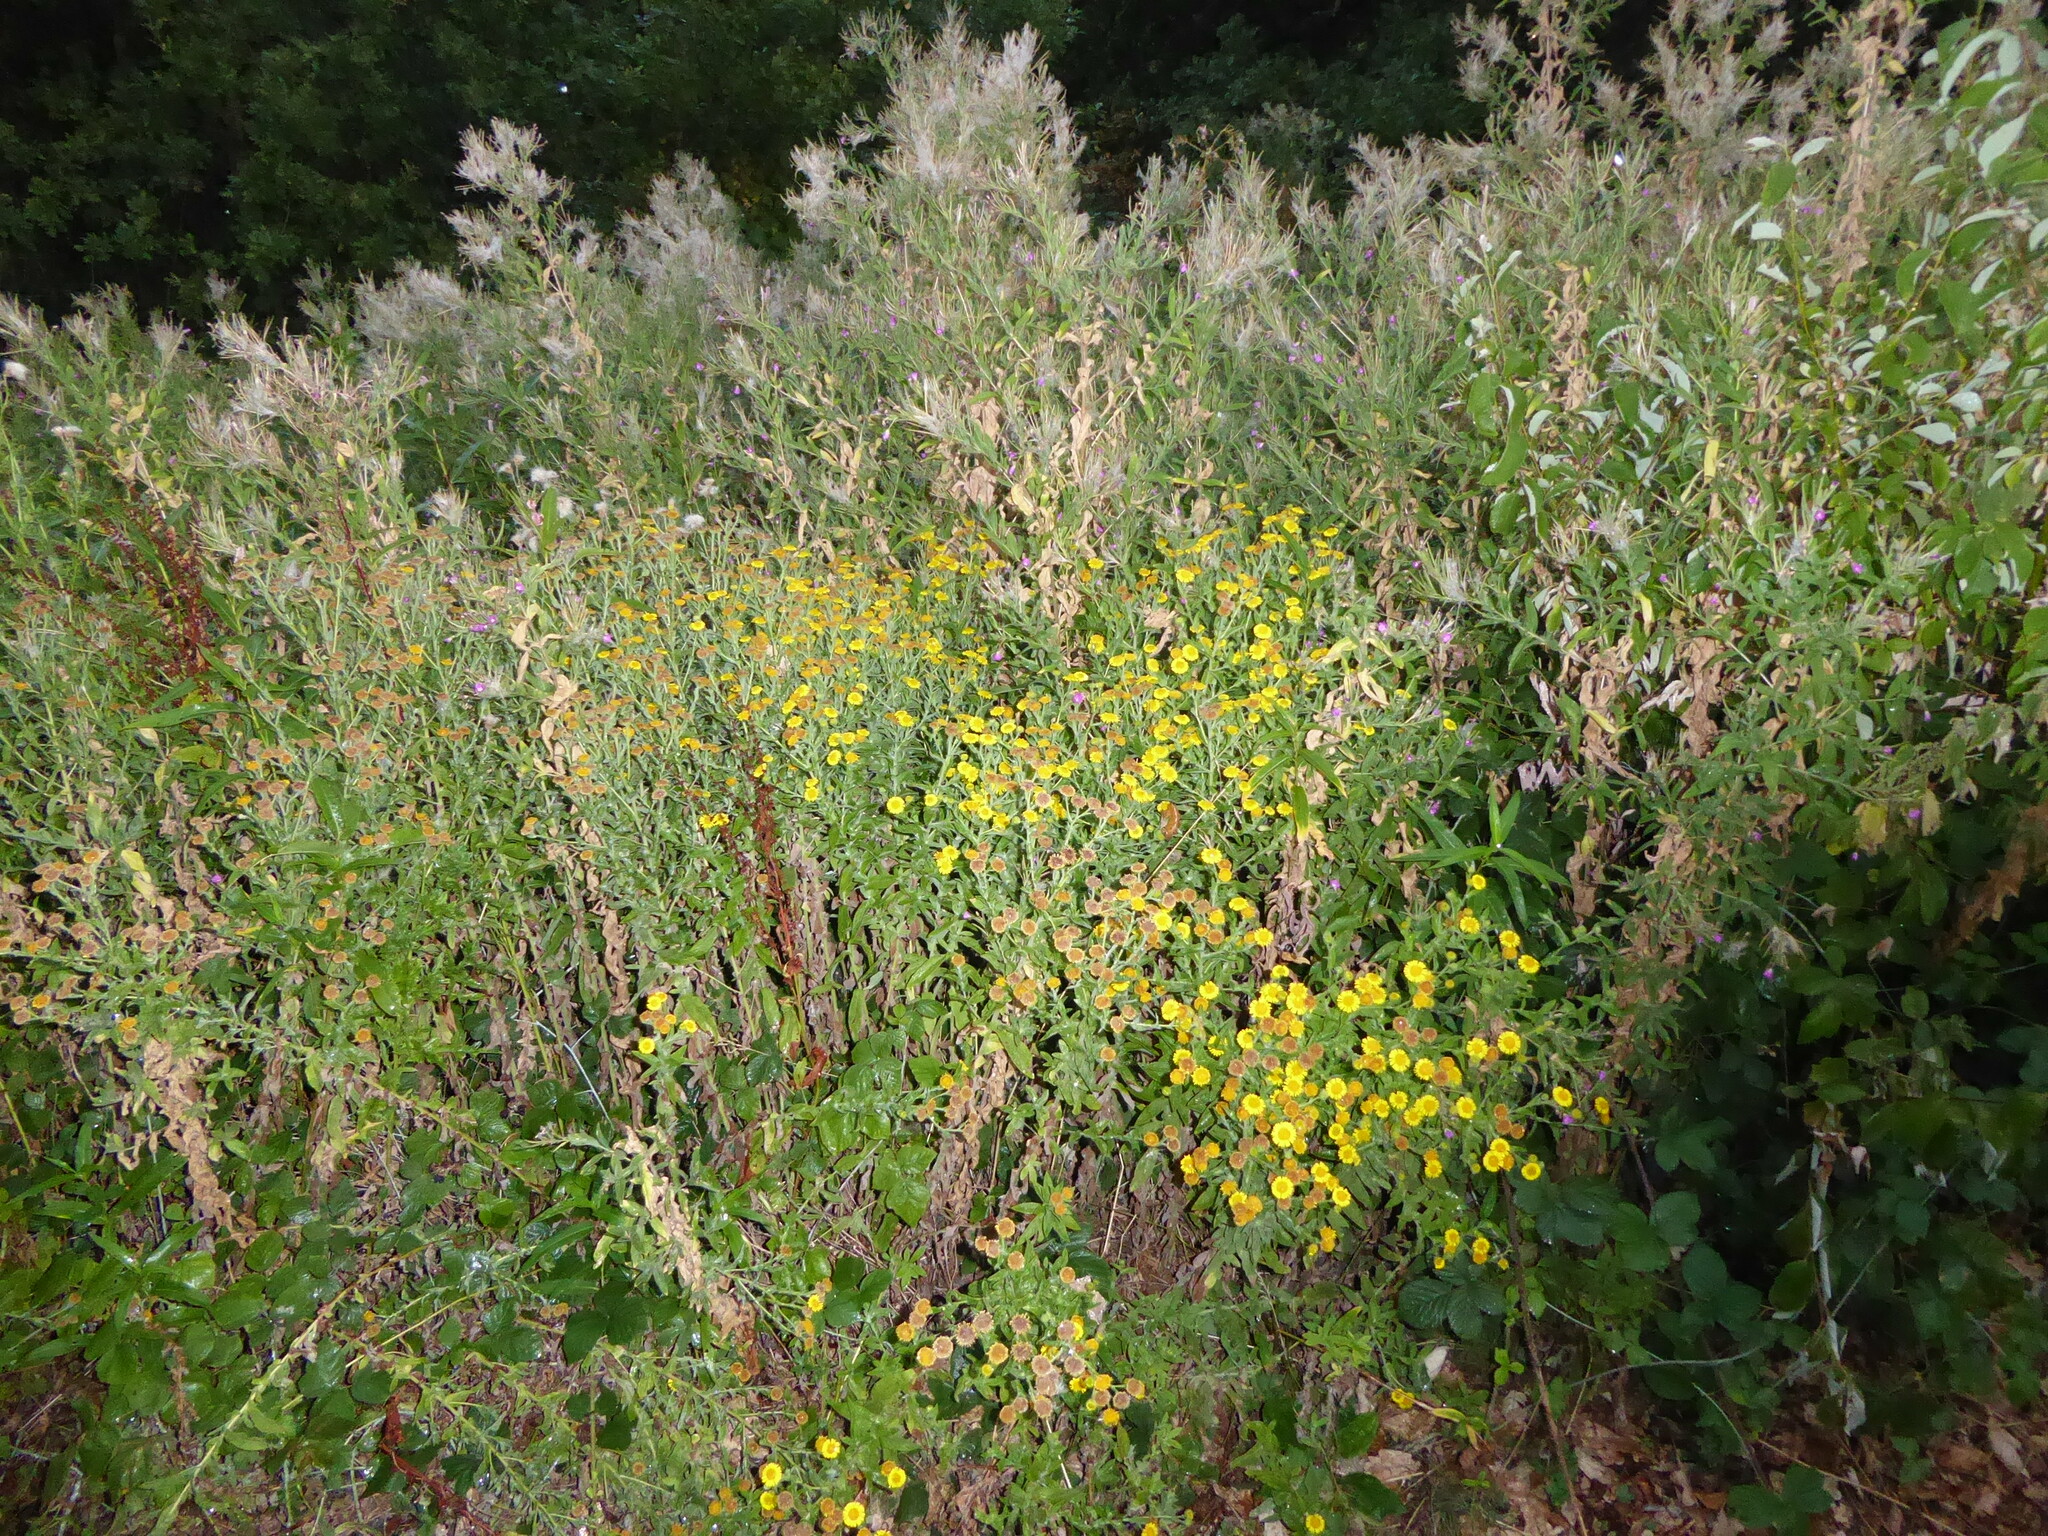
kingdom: Plantae
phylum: Tracheophyta
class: Magnoliopsida
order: Asterales
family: Asteraceae
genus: Pulicaria
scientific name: Pulicaria dysenterica
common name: Common fleabane
